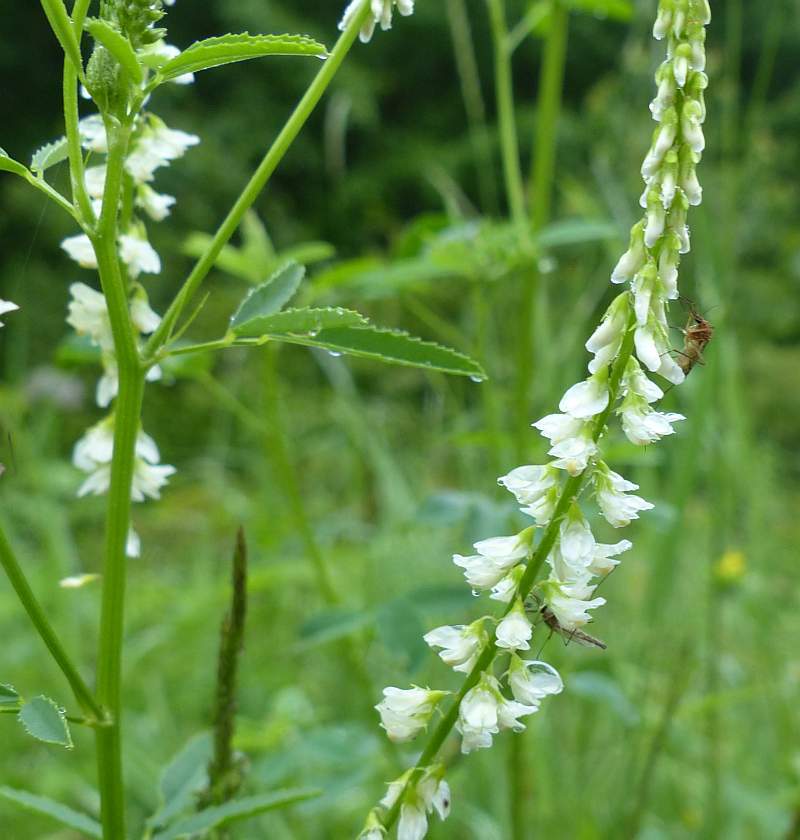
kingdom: Plantae
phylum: Tracheophyta
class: Magnoliopsida
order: Fabales
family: Fabaceae
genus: Melilotus
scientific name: Melilotus albus
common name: White melilot
